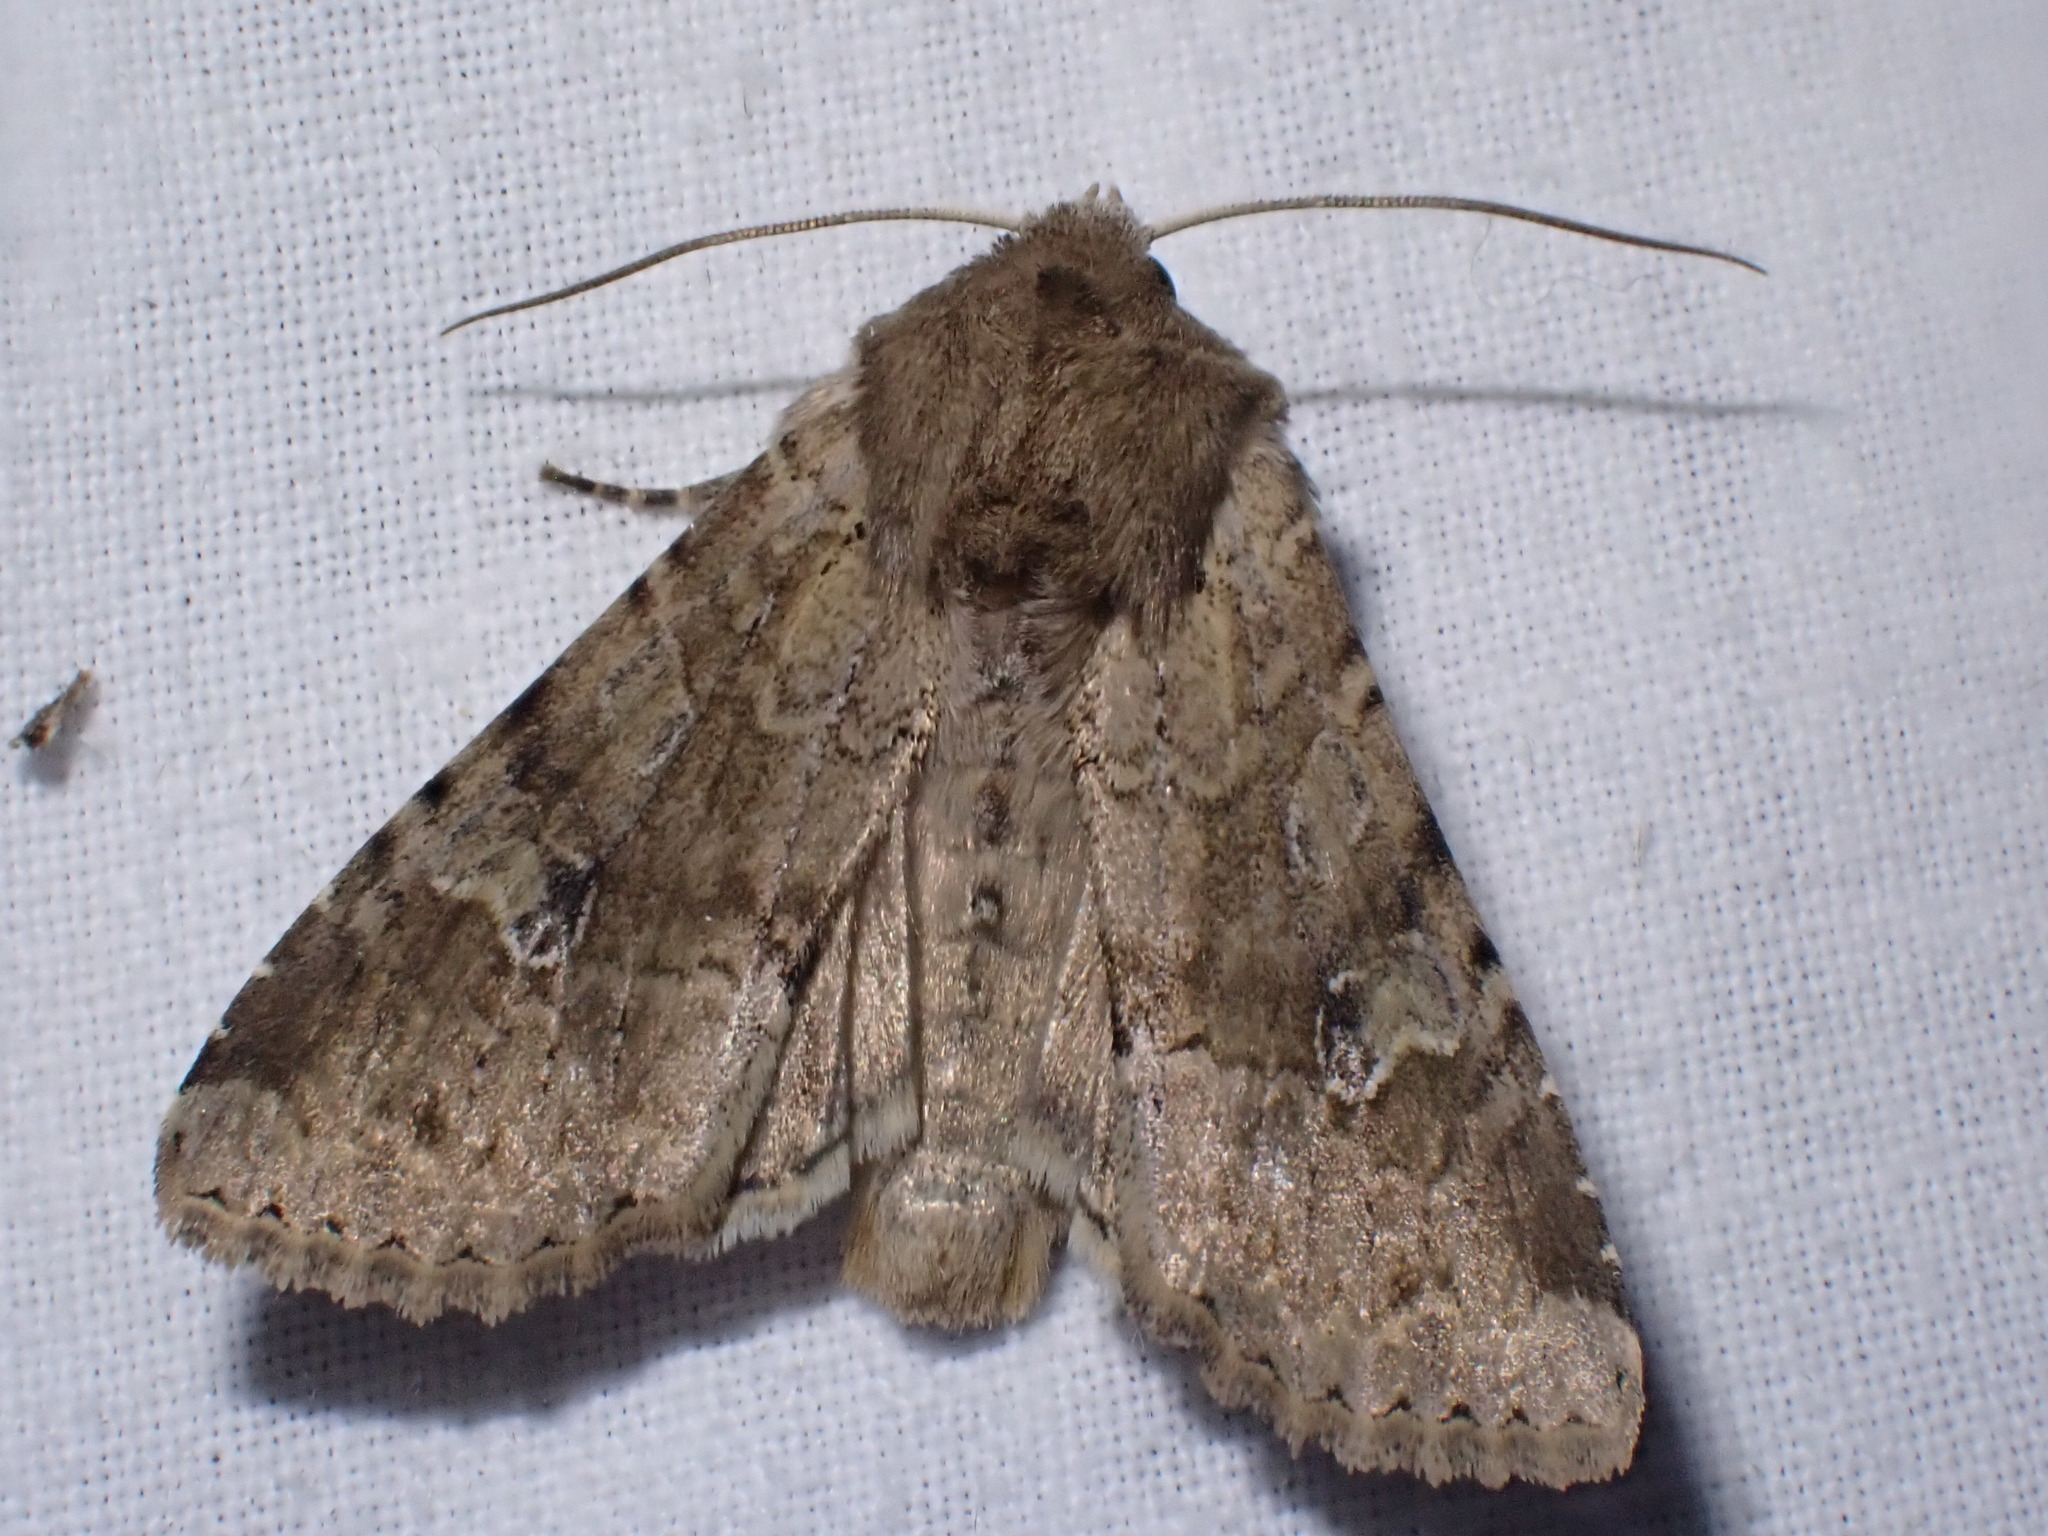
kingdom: Animalia
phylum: Arthropoda
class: Insecta
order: Lepidoptera
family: Noctuidae
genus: Apamea
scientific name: Apamea sordens
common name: Rustic shoulder-knot
